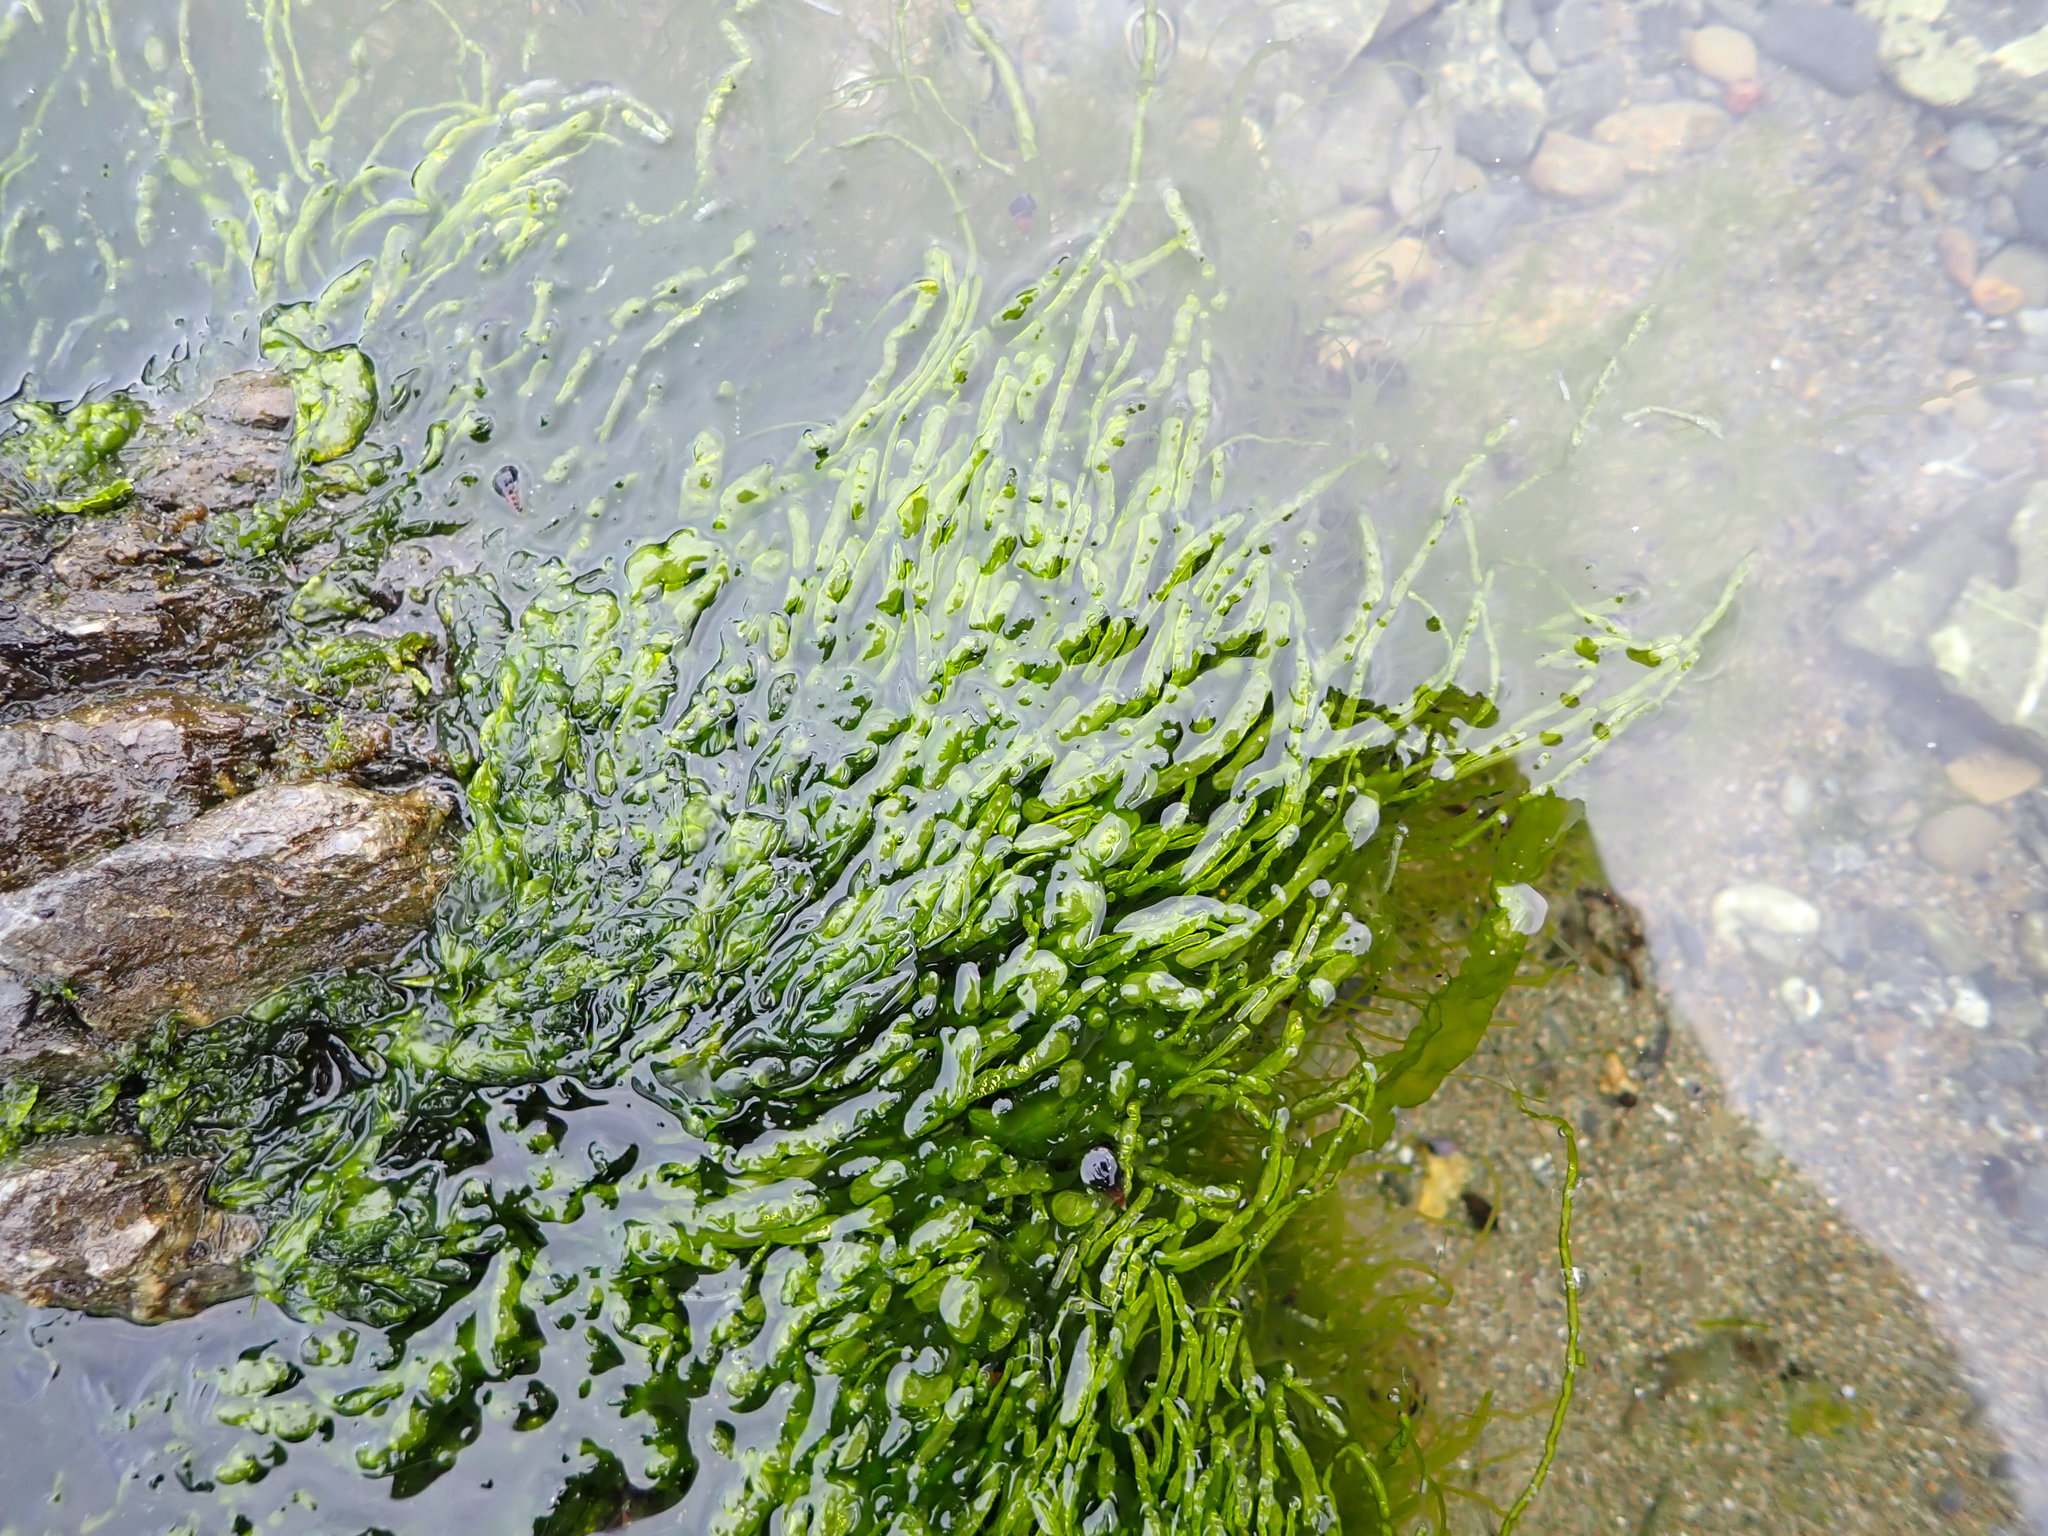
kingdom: Plantae
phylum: Chlorophyta
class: Ulvophyceae
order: Ulvales
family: Ulvaceae
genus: Ulva
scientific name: Ulva intestinalis
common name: Gut weed
